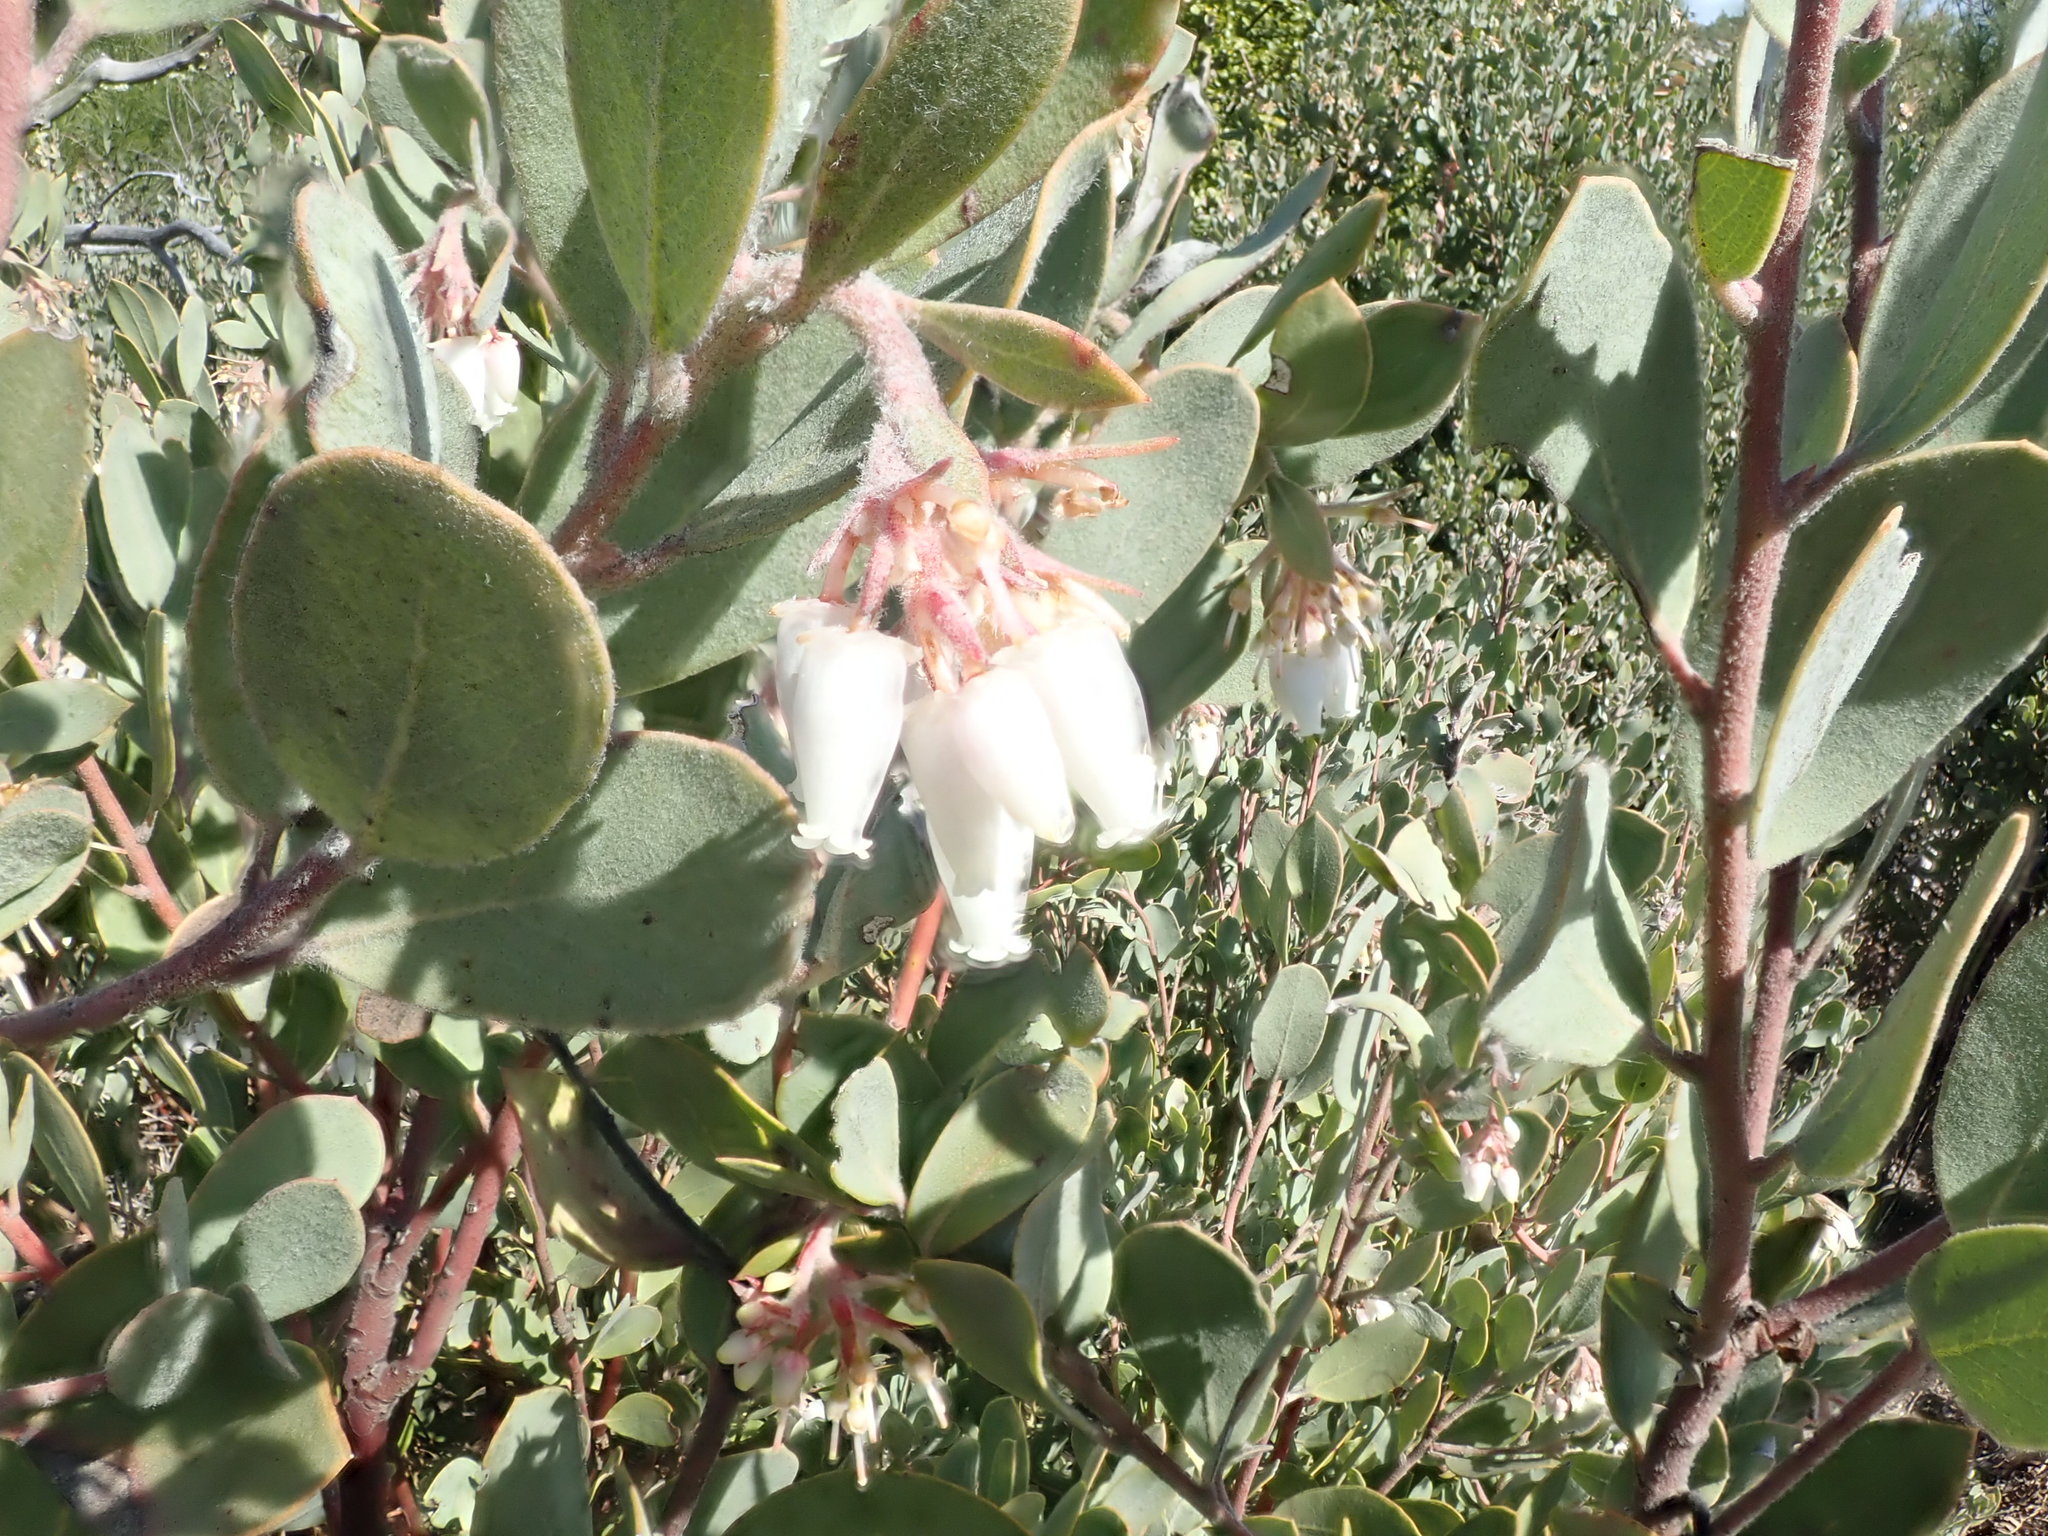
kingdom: Plantae
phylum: Tracheophyta
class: Magnoliopsida
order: Ericales
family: Ericaceae
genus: Arctostaphylos
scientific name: Arctostaphylos silvicola
